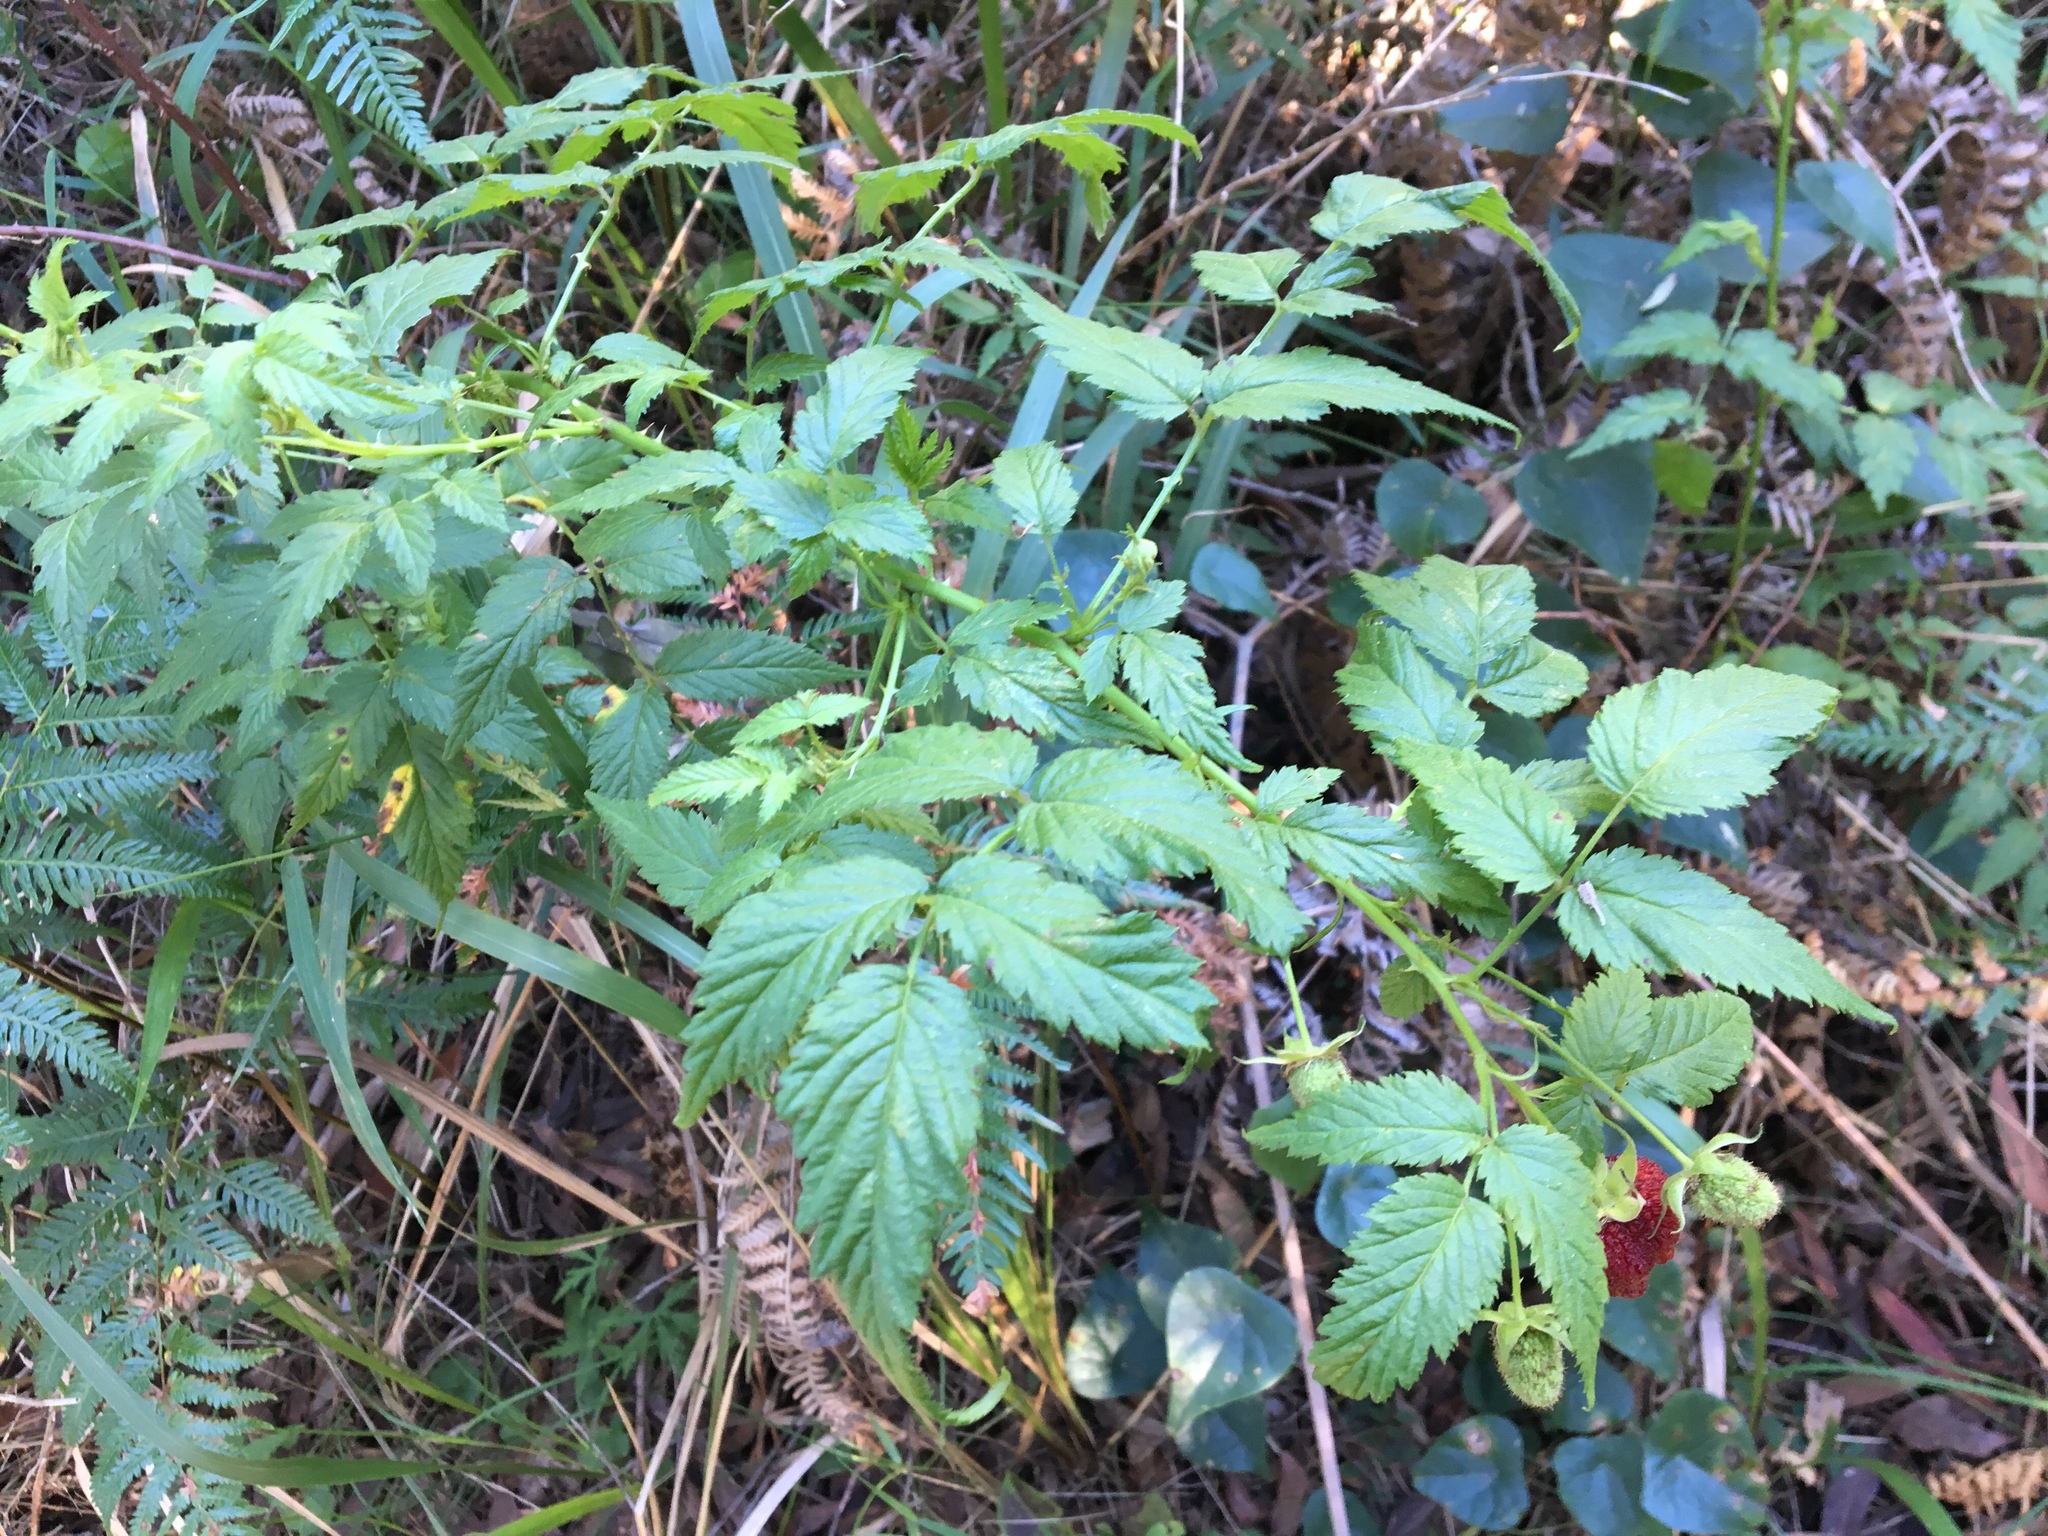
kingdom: Plantae
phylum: Tracheophyta
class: Magnoliopsida
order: Rosales
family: Rosaceae
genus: Rubus
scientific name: Rubus rosifolius
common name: Roseleaf raspberry
